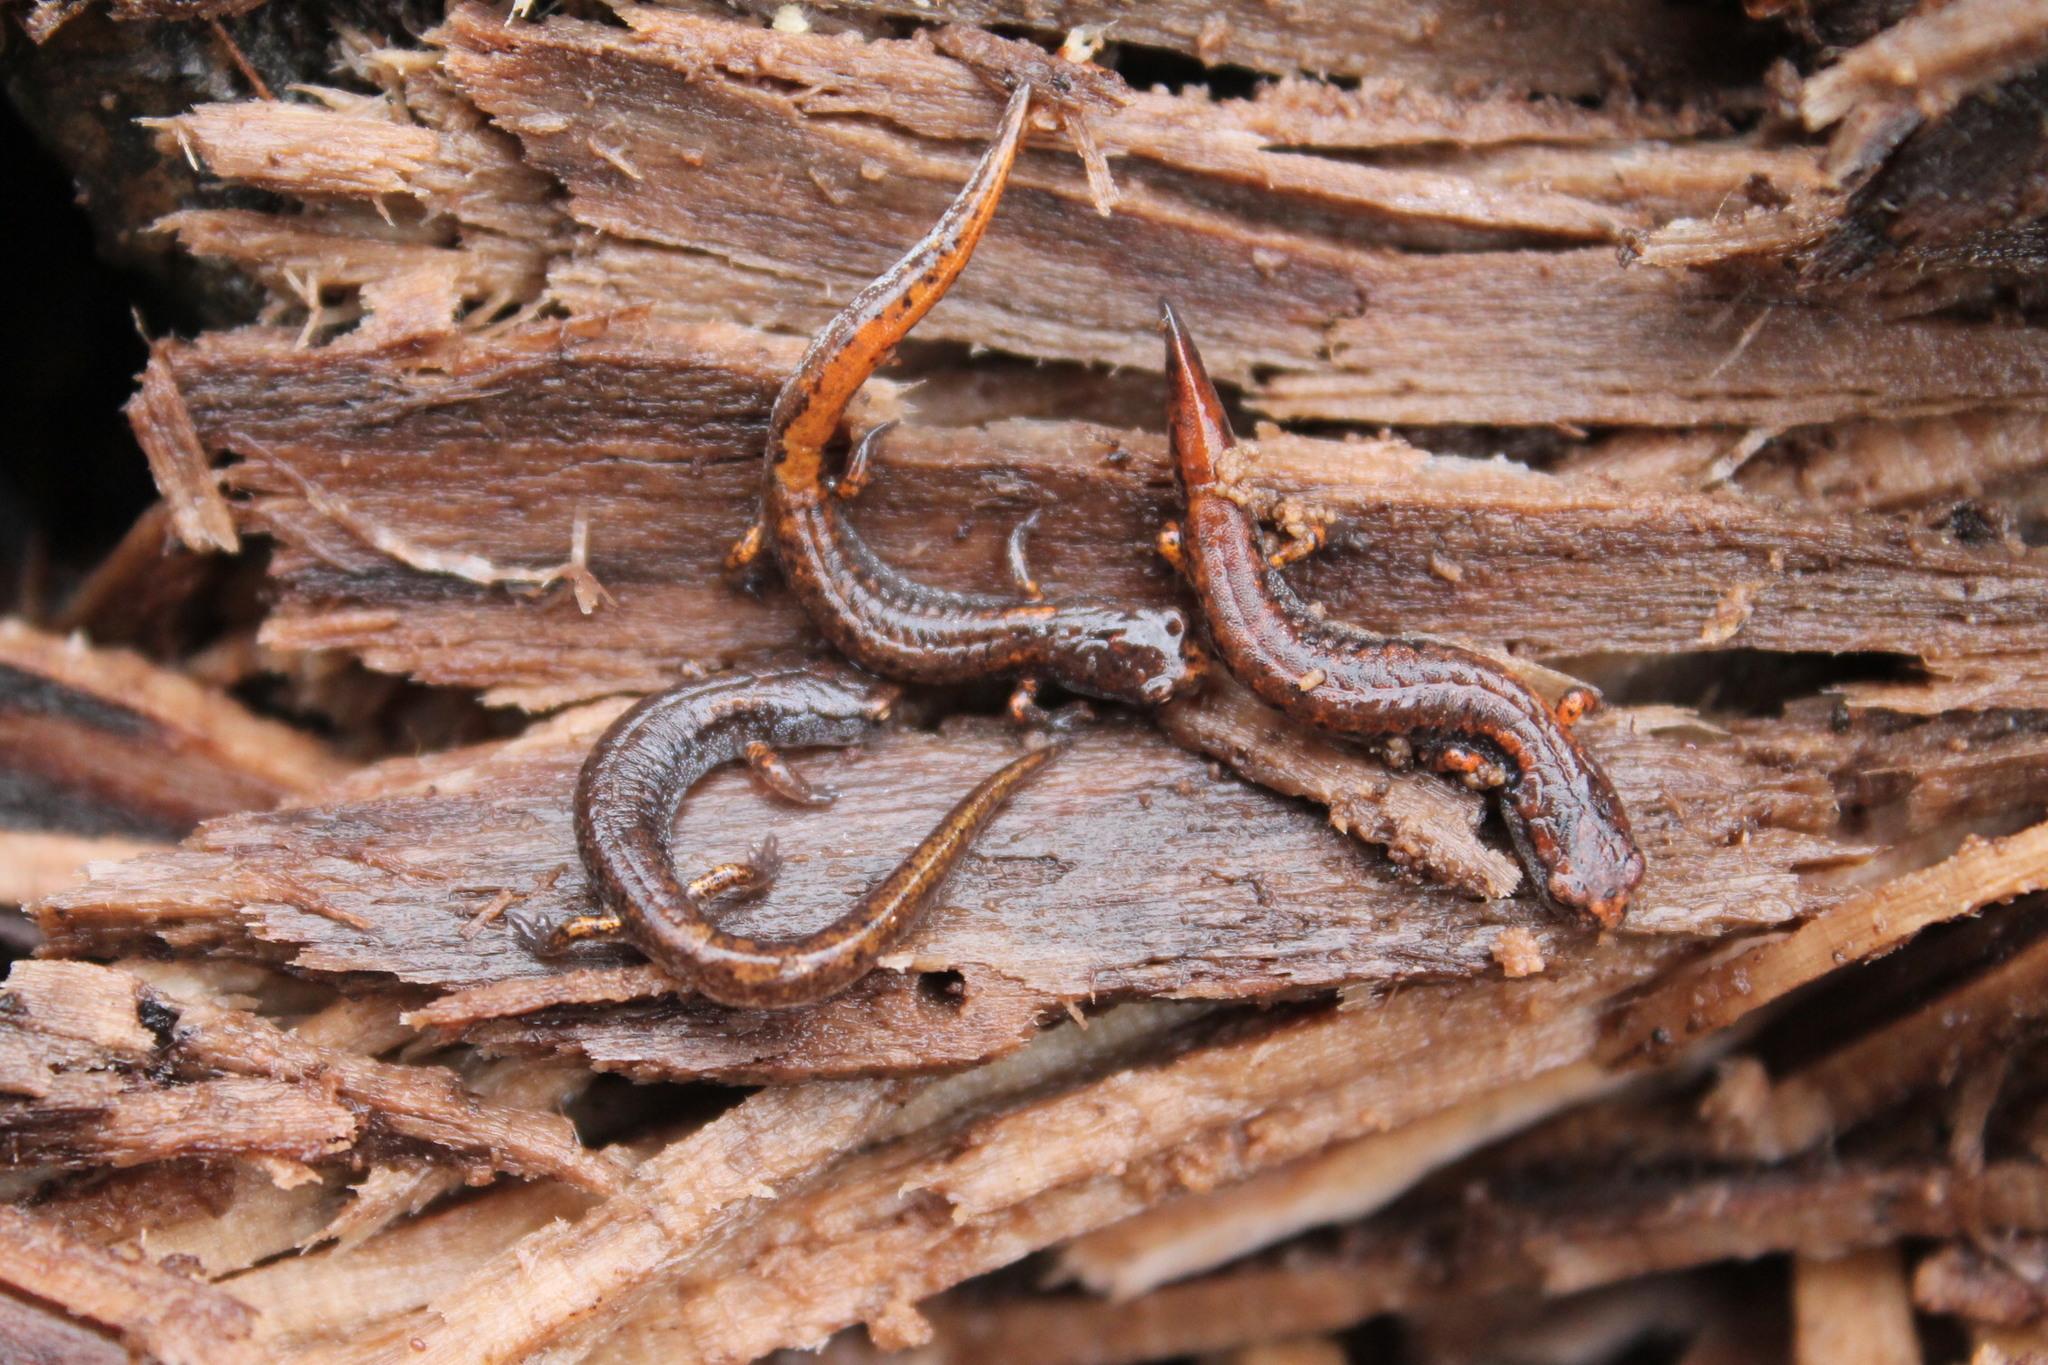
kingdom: Animalia
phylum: Chordata
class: Amphibia
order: Caudata
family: Plethodontidae
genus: Hemidactylium
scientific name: Hemidactylium scutatum
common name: Four-toed salamander
